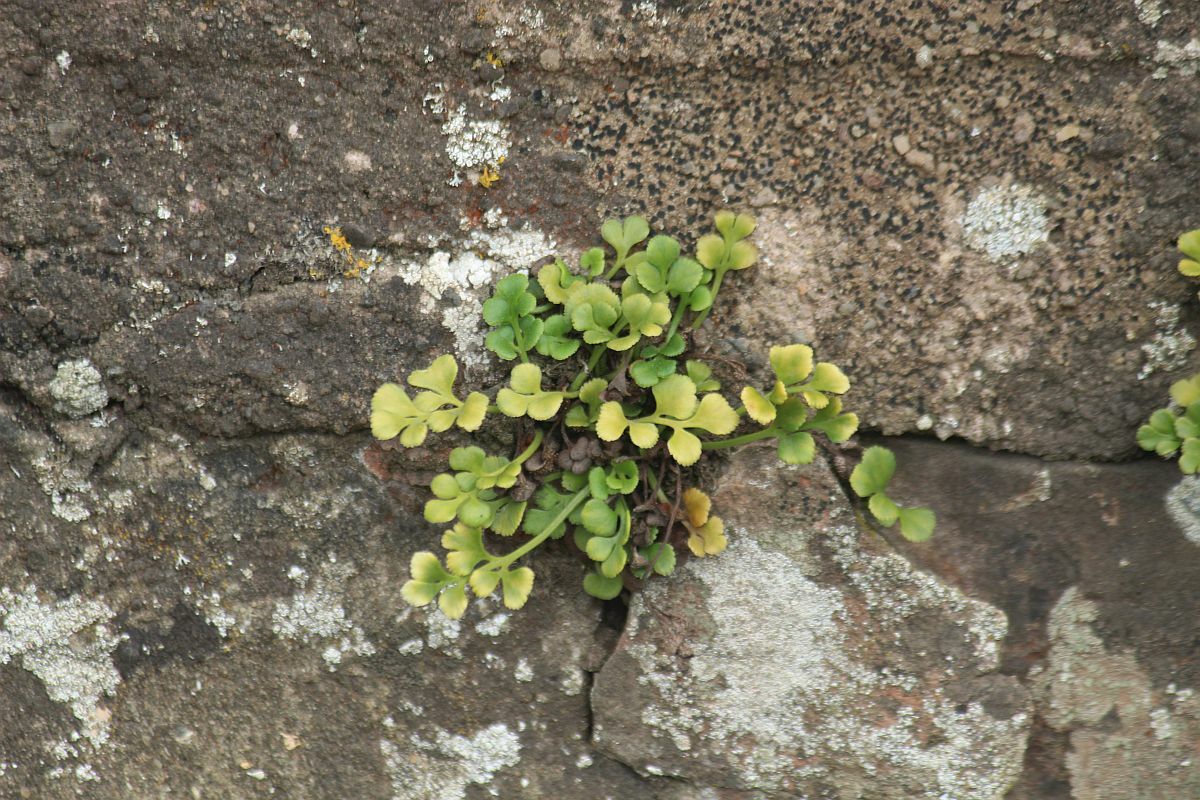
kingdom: Plantae
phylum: Tracheophyta
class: Polypodiopsida
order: Polypodiales
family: Aspleniaceae
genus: Asplenium
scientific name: Asplenium ruta-muraria
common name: Wall-rue
